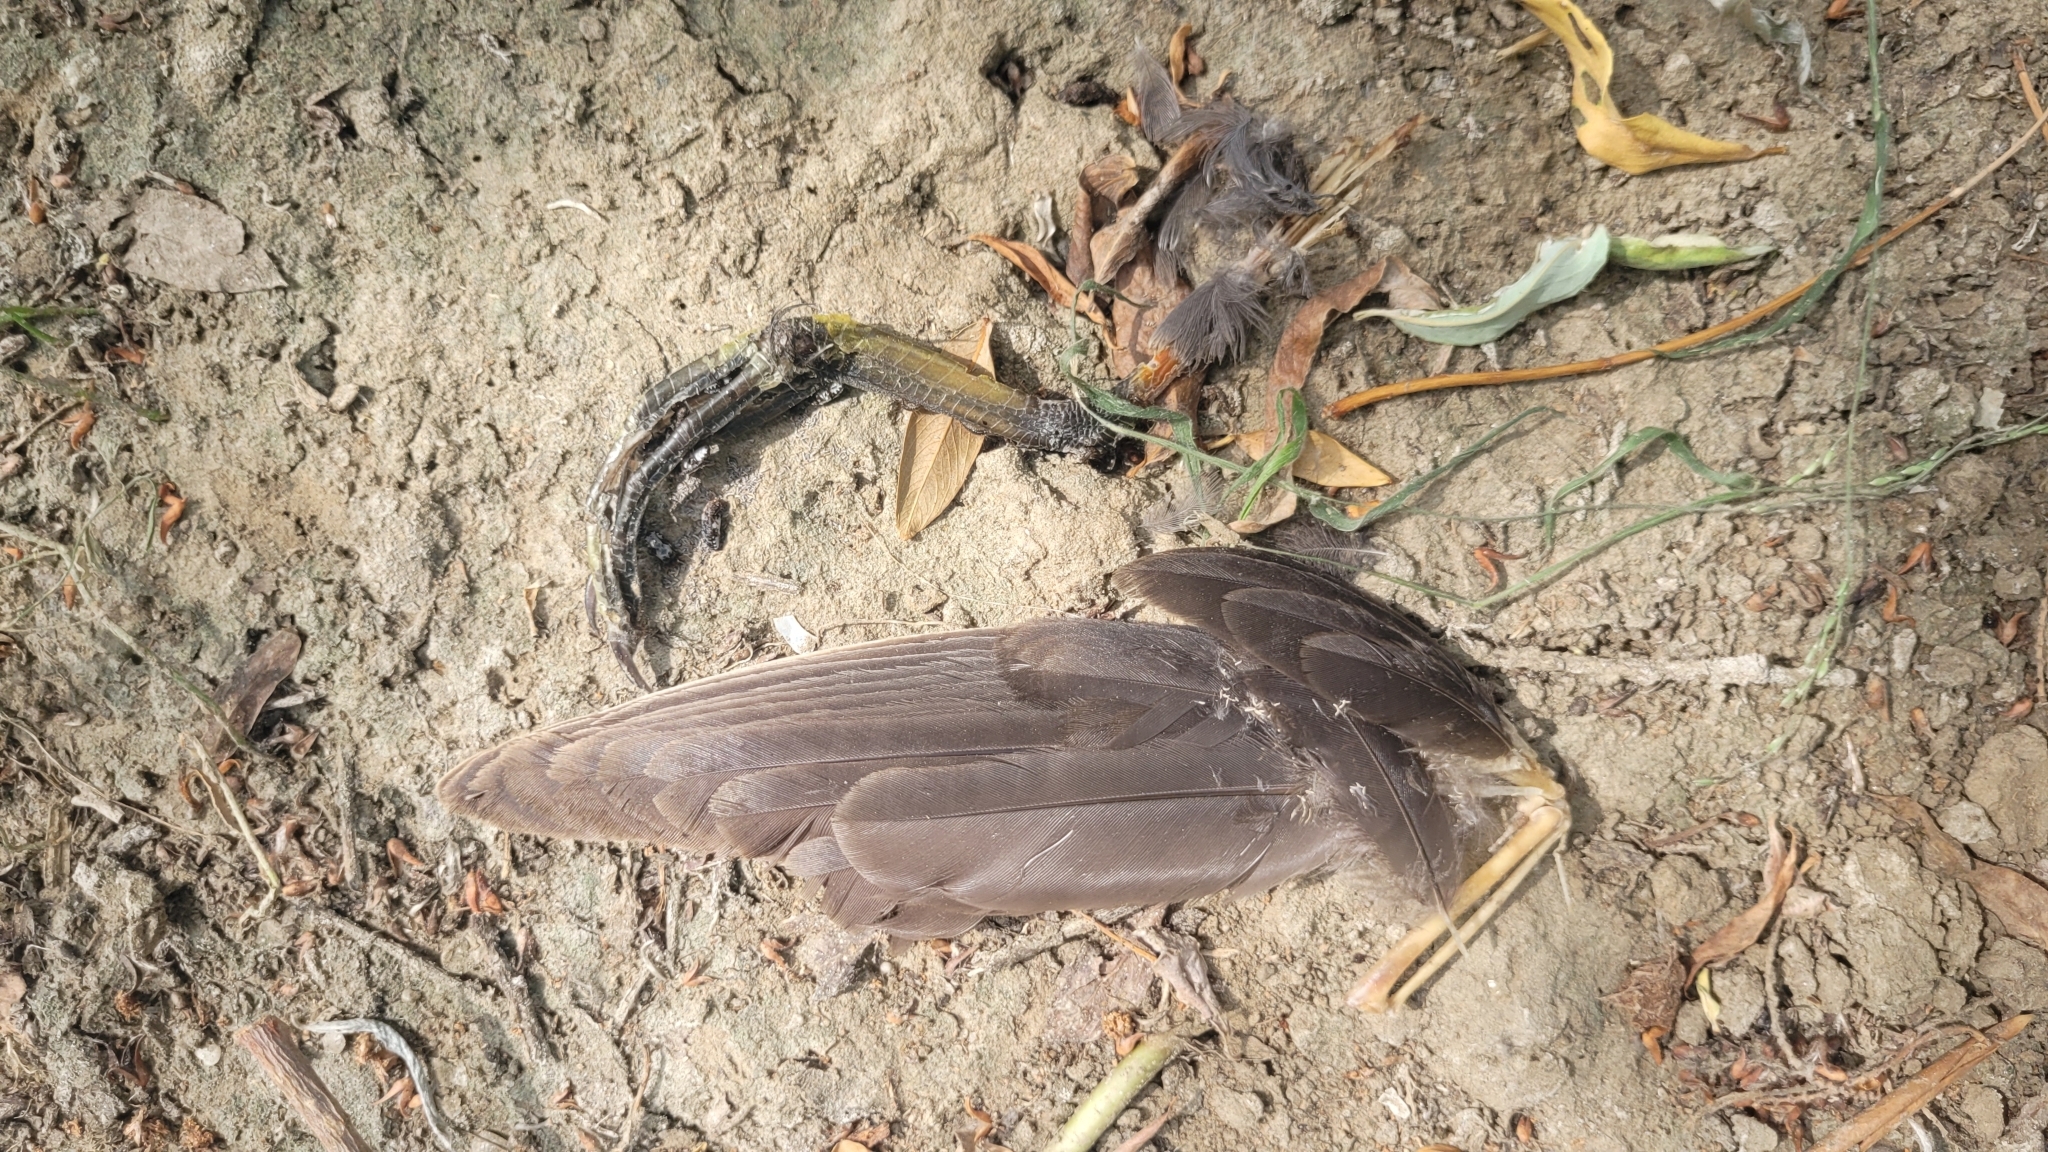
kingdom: Animalia
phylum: Chordata
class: Aves
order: Gruiformes
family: Rallidae
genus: Gallinula
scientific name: Gallinula chloropus
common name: Common moorhen
